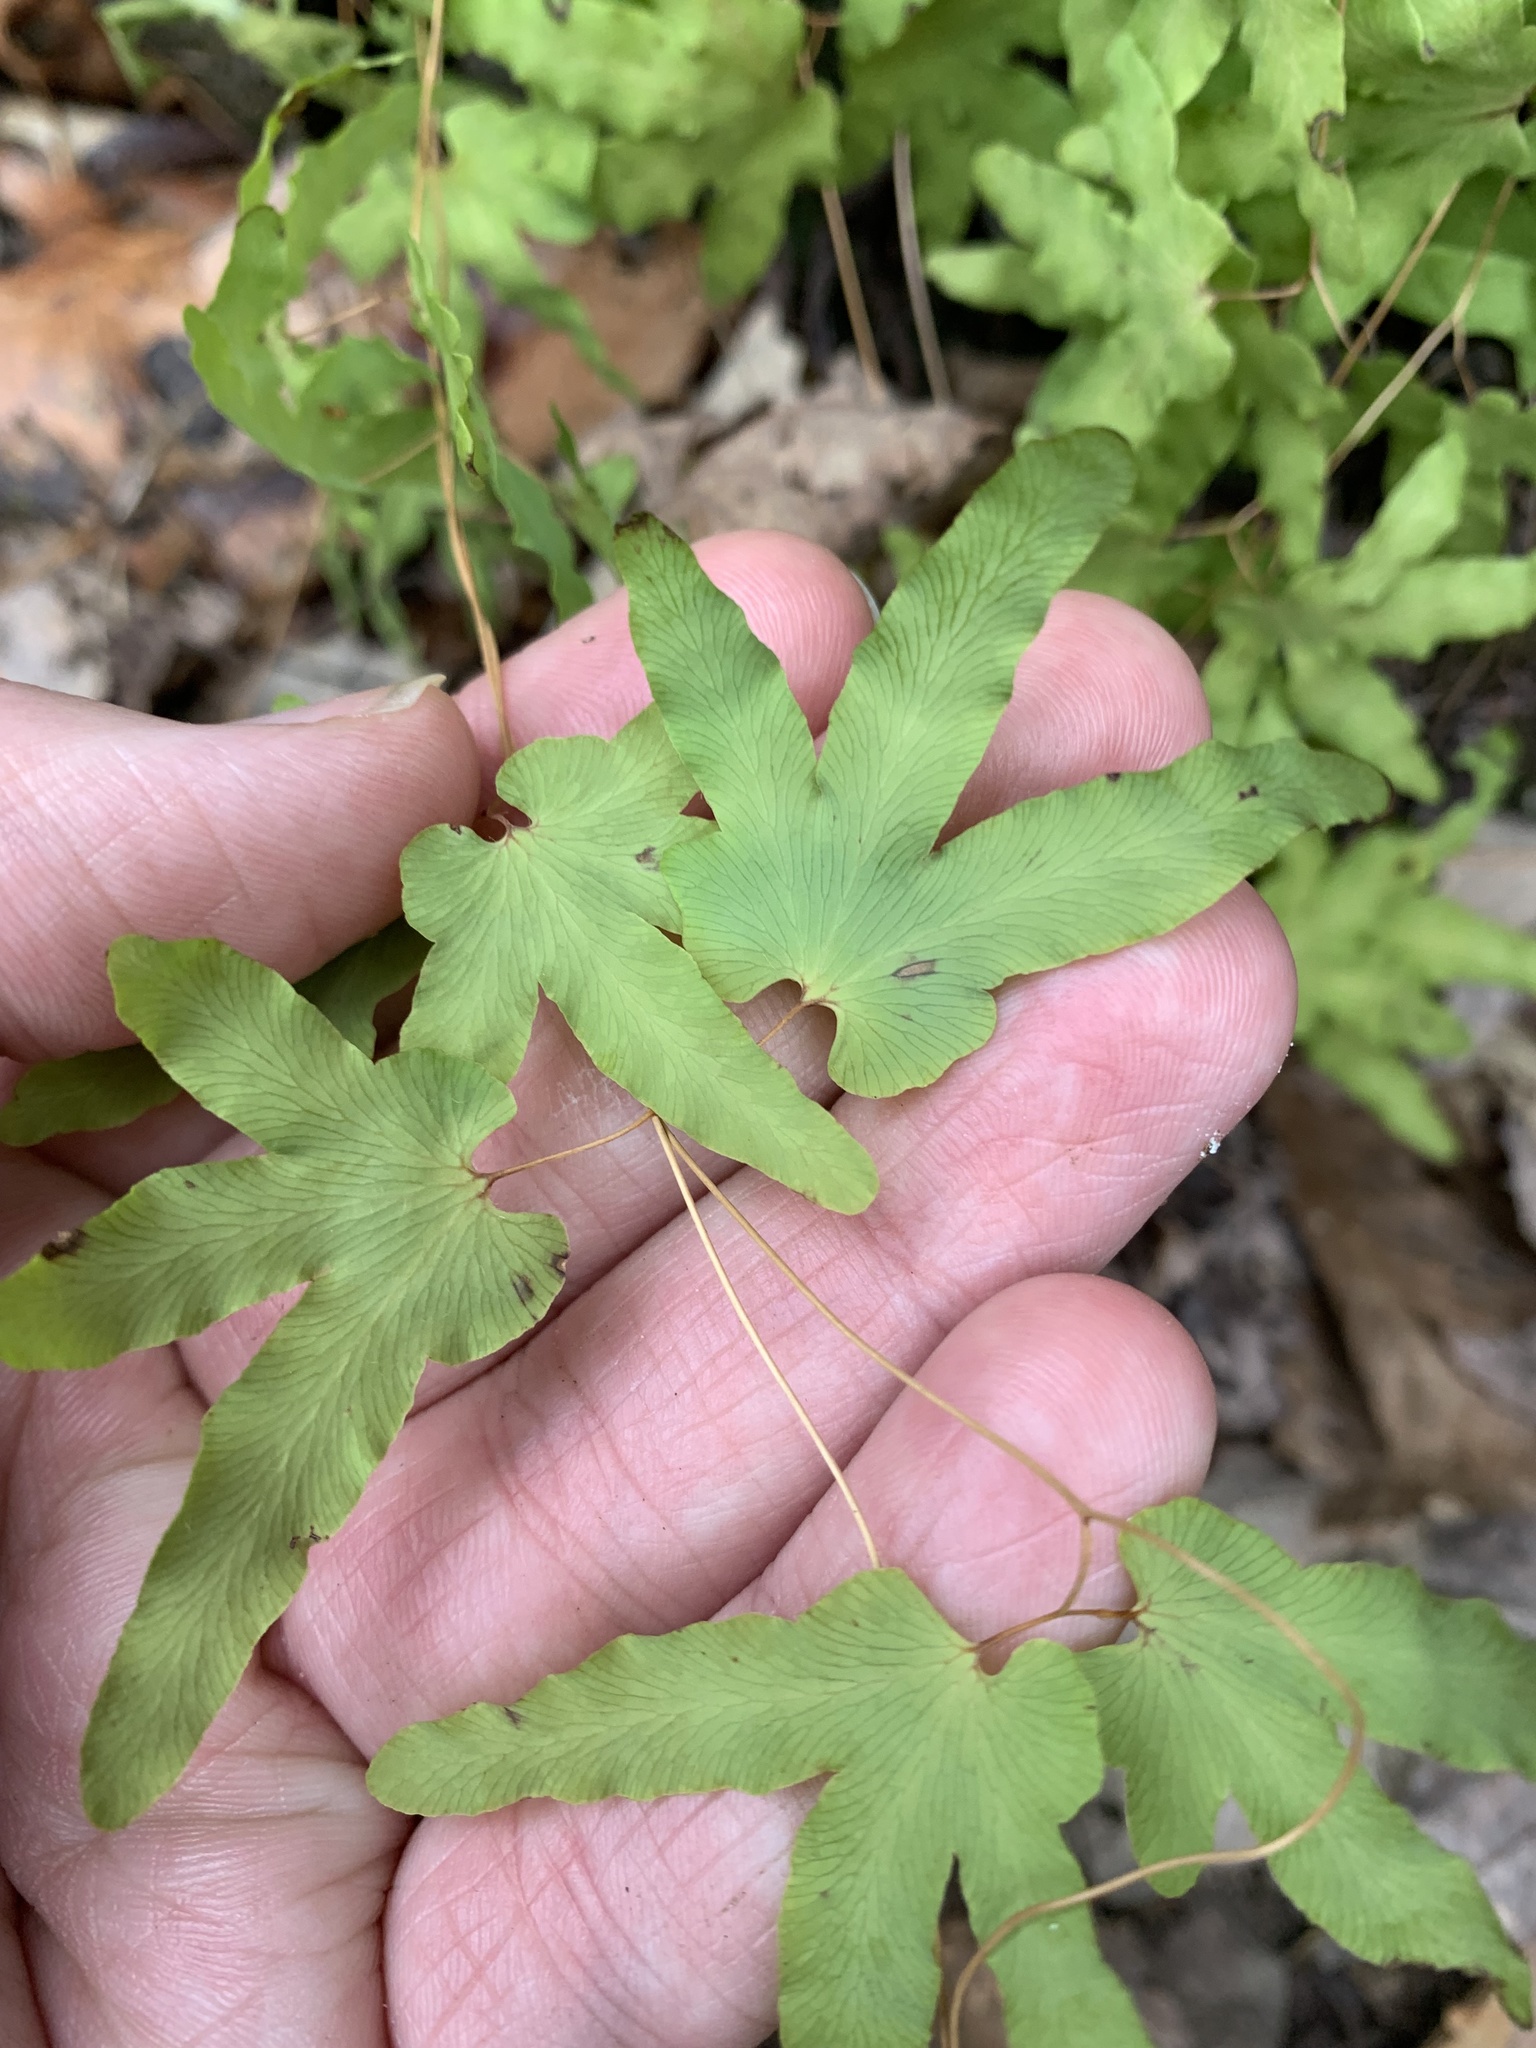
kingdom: Plantae
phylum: Tracheophyta
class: Polypodiopsida
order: Schizaeales
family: Lygodiaceae
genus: Lygodium
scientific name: Lygodium palmatum
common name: American climbing fern
